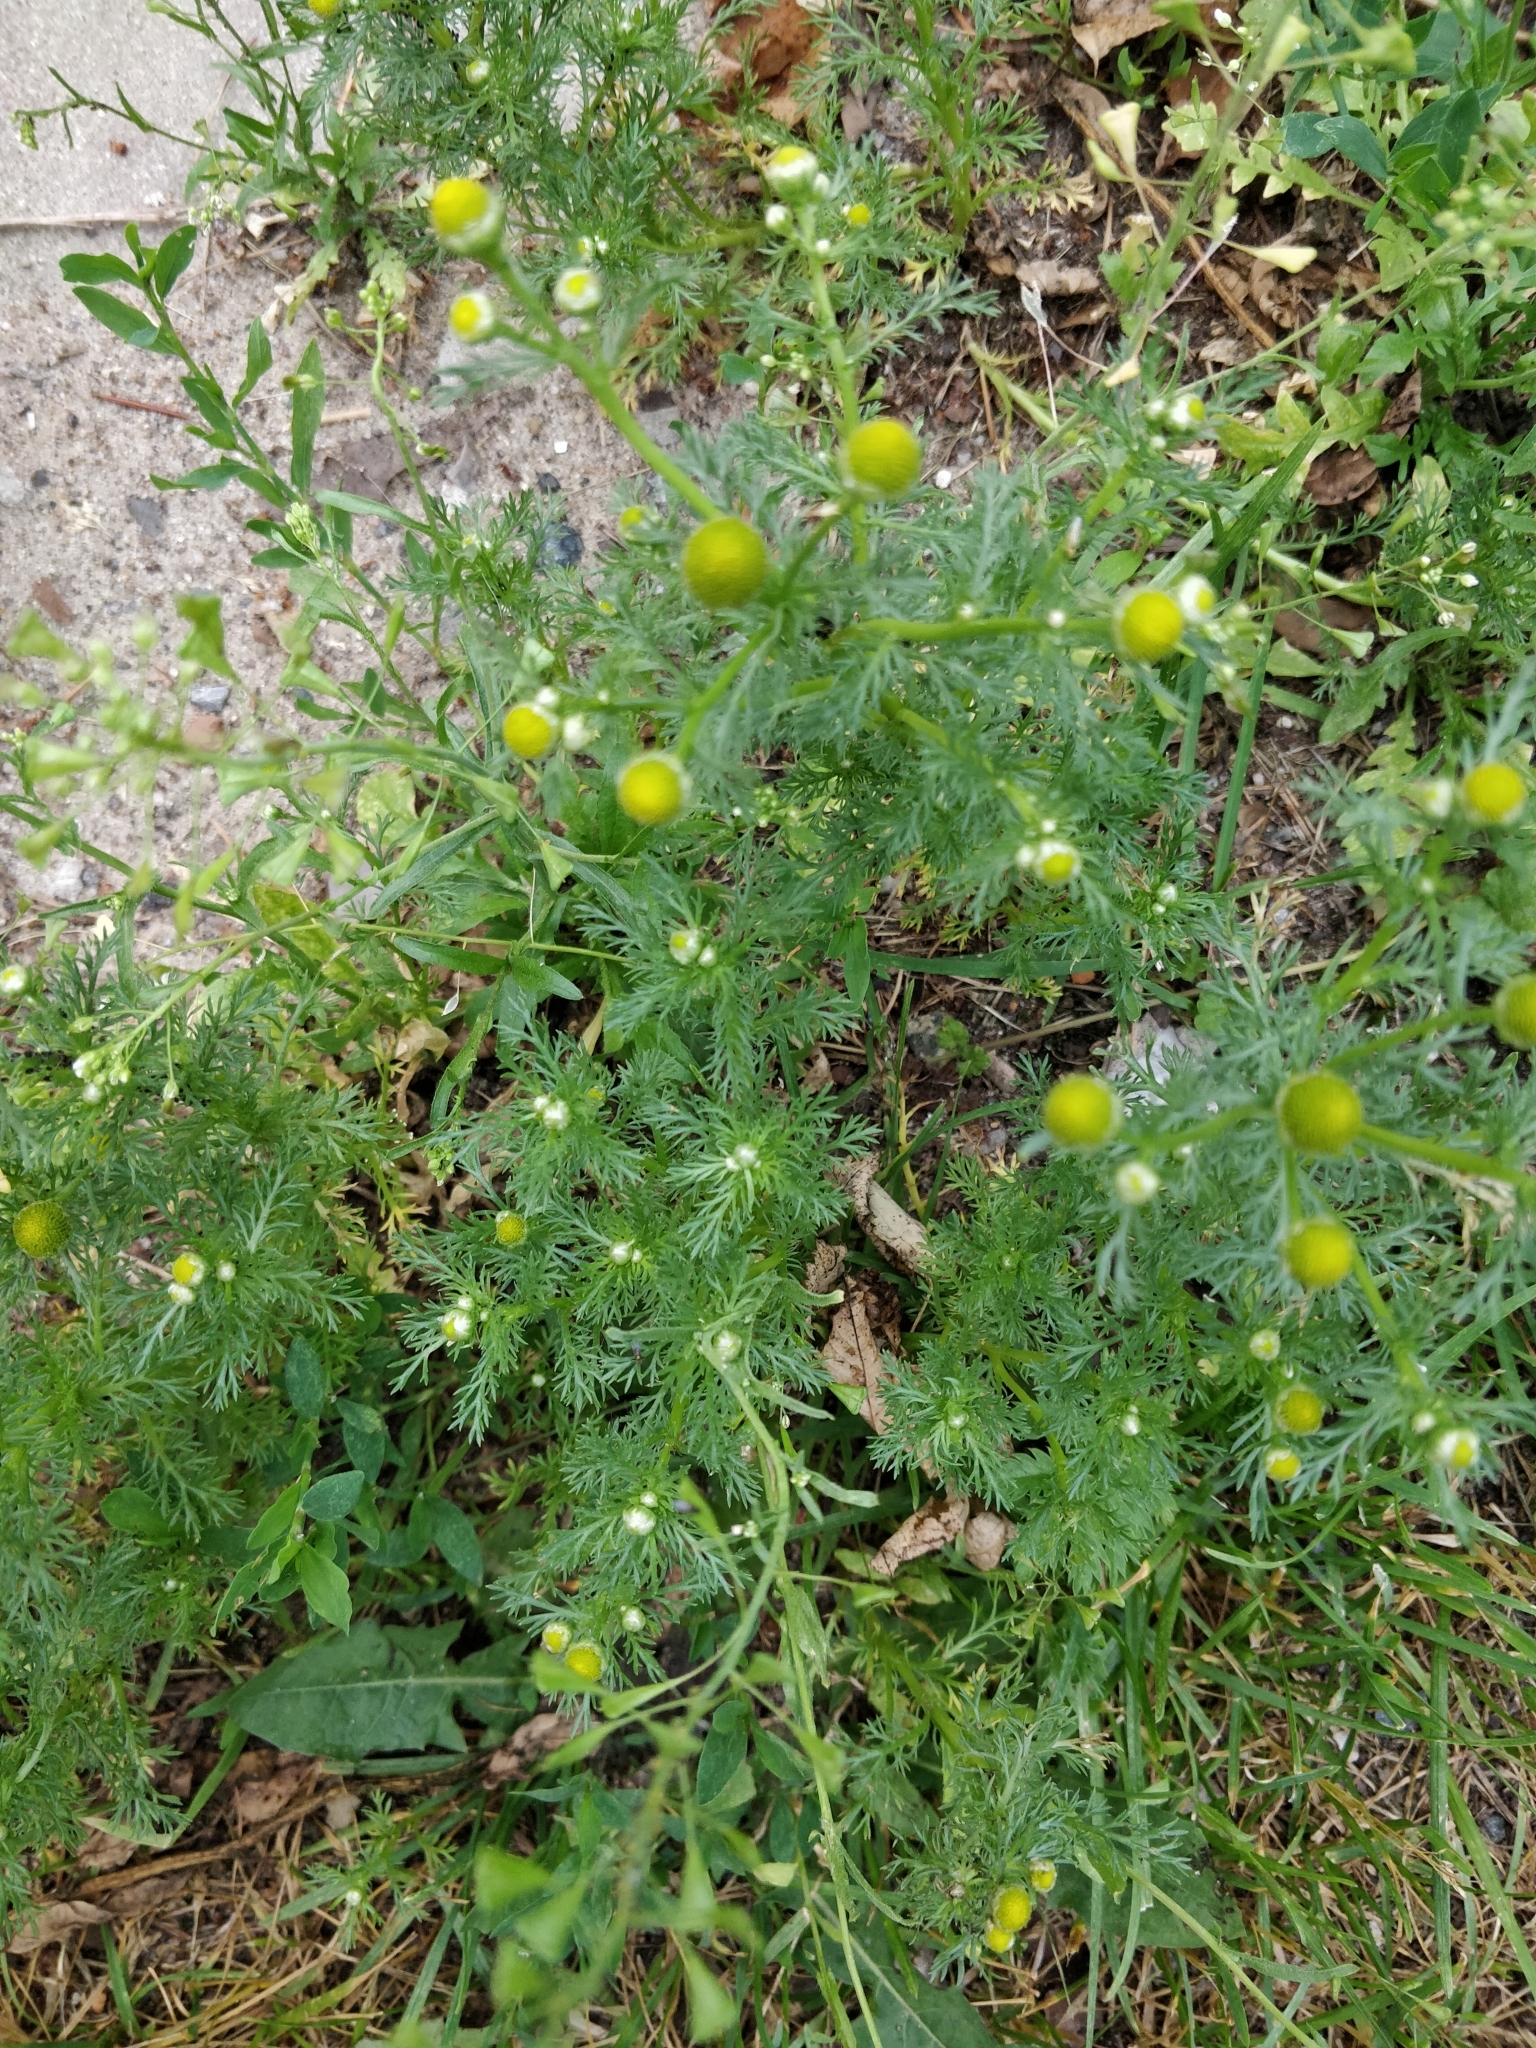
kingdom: Plantae
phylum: Tracheophyta
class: Magnoliopsida
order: Asterales
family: Asteraceae
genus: Matricaria
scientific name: Matricaria discoidea
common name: Disc mayweed
